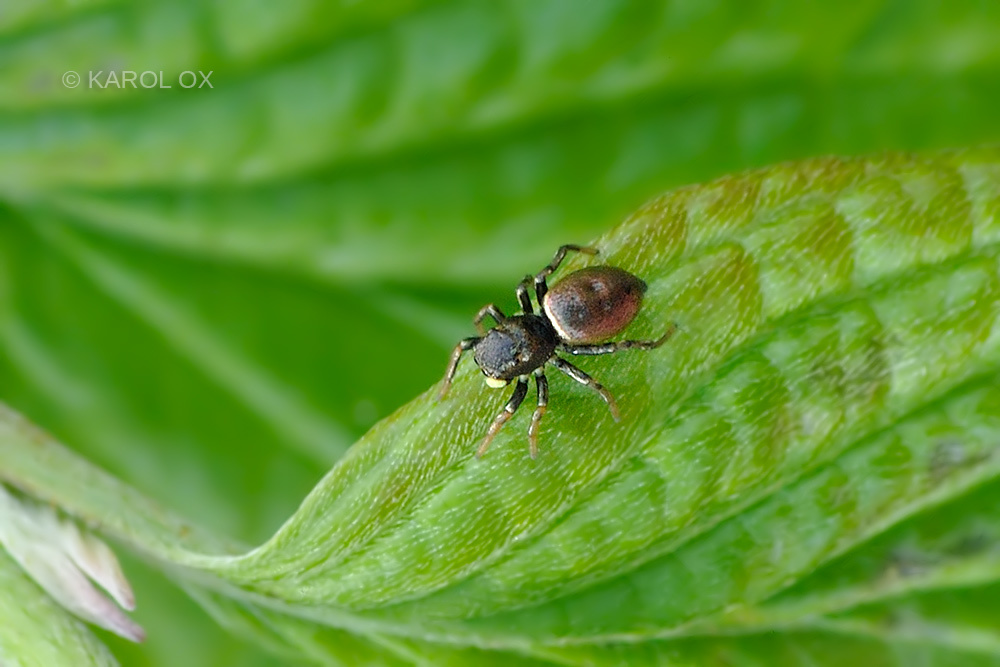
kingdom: Animalia
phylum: Arthropoda
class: Arachnida
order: Araneae
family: Salticidae
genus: Heliophanus
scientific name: Heliophanus auratus
